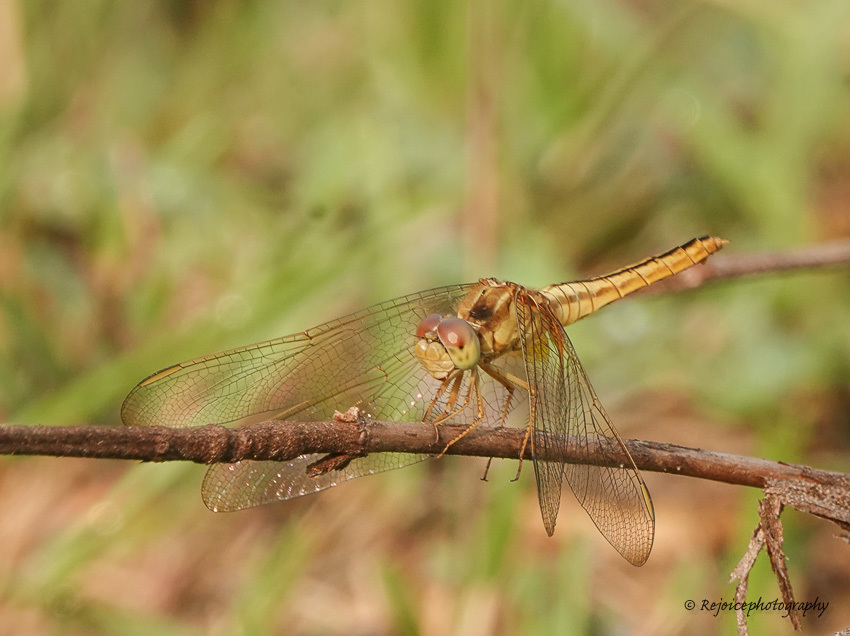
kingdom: Animalia
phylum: Arthropoda
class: Insecta
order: Odonata
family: Libellulidae
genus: Crocothemis
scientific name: Crocothemis servilia
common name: Scarlet skimmer
